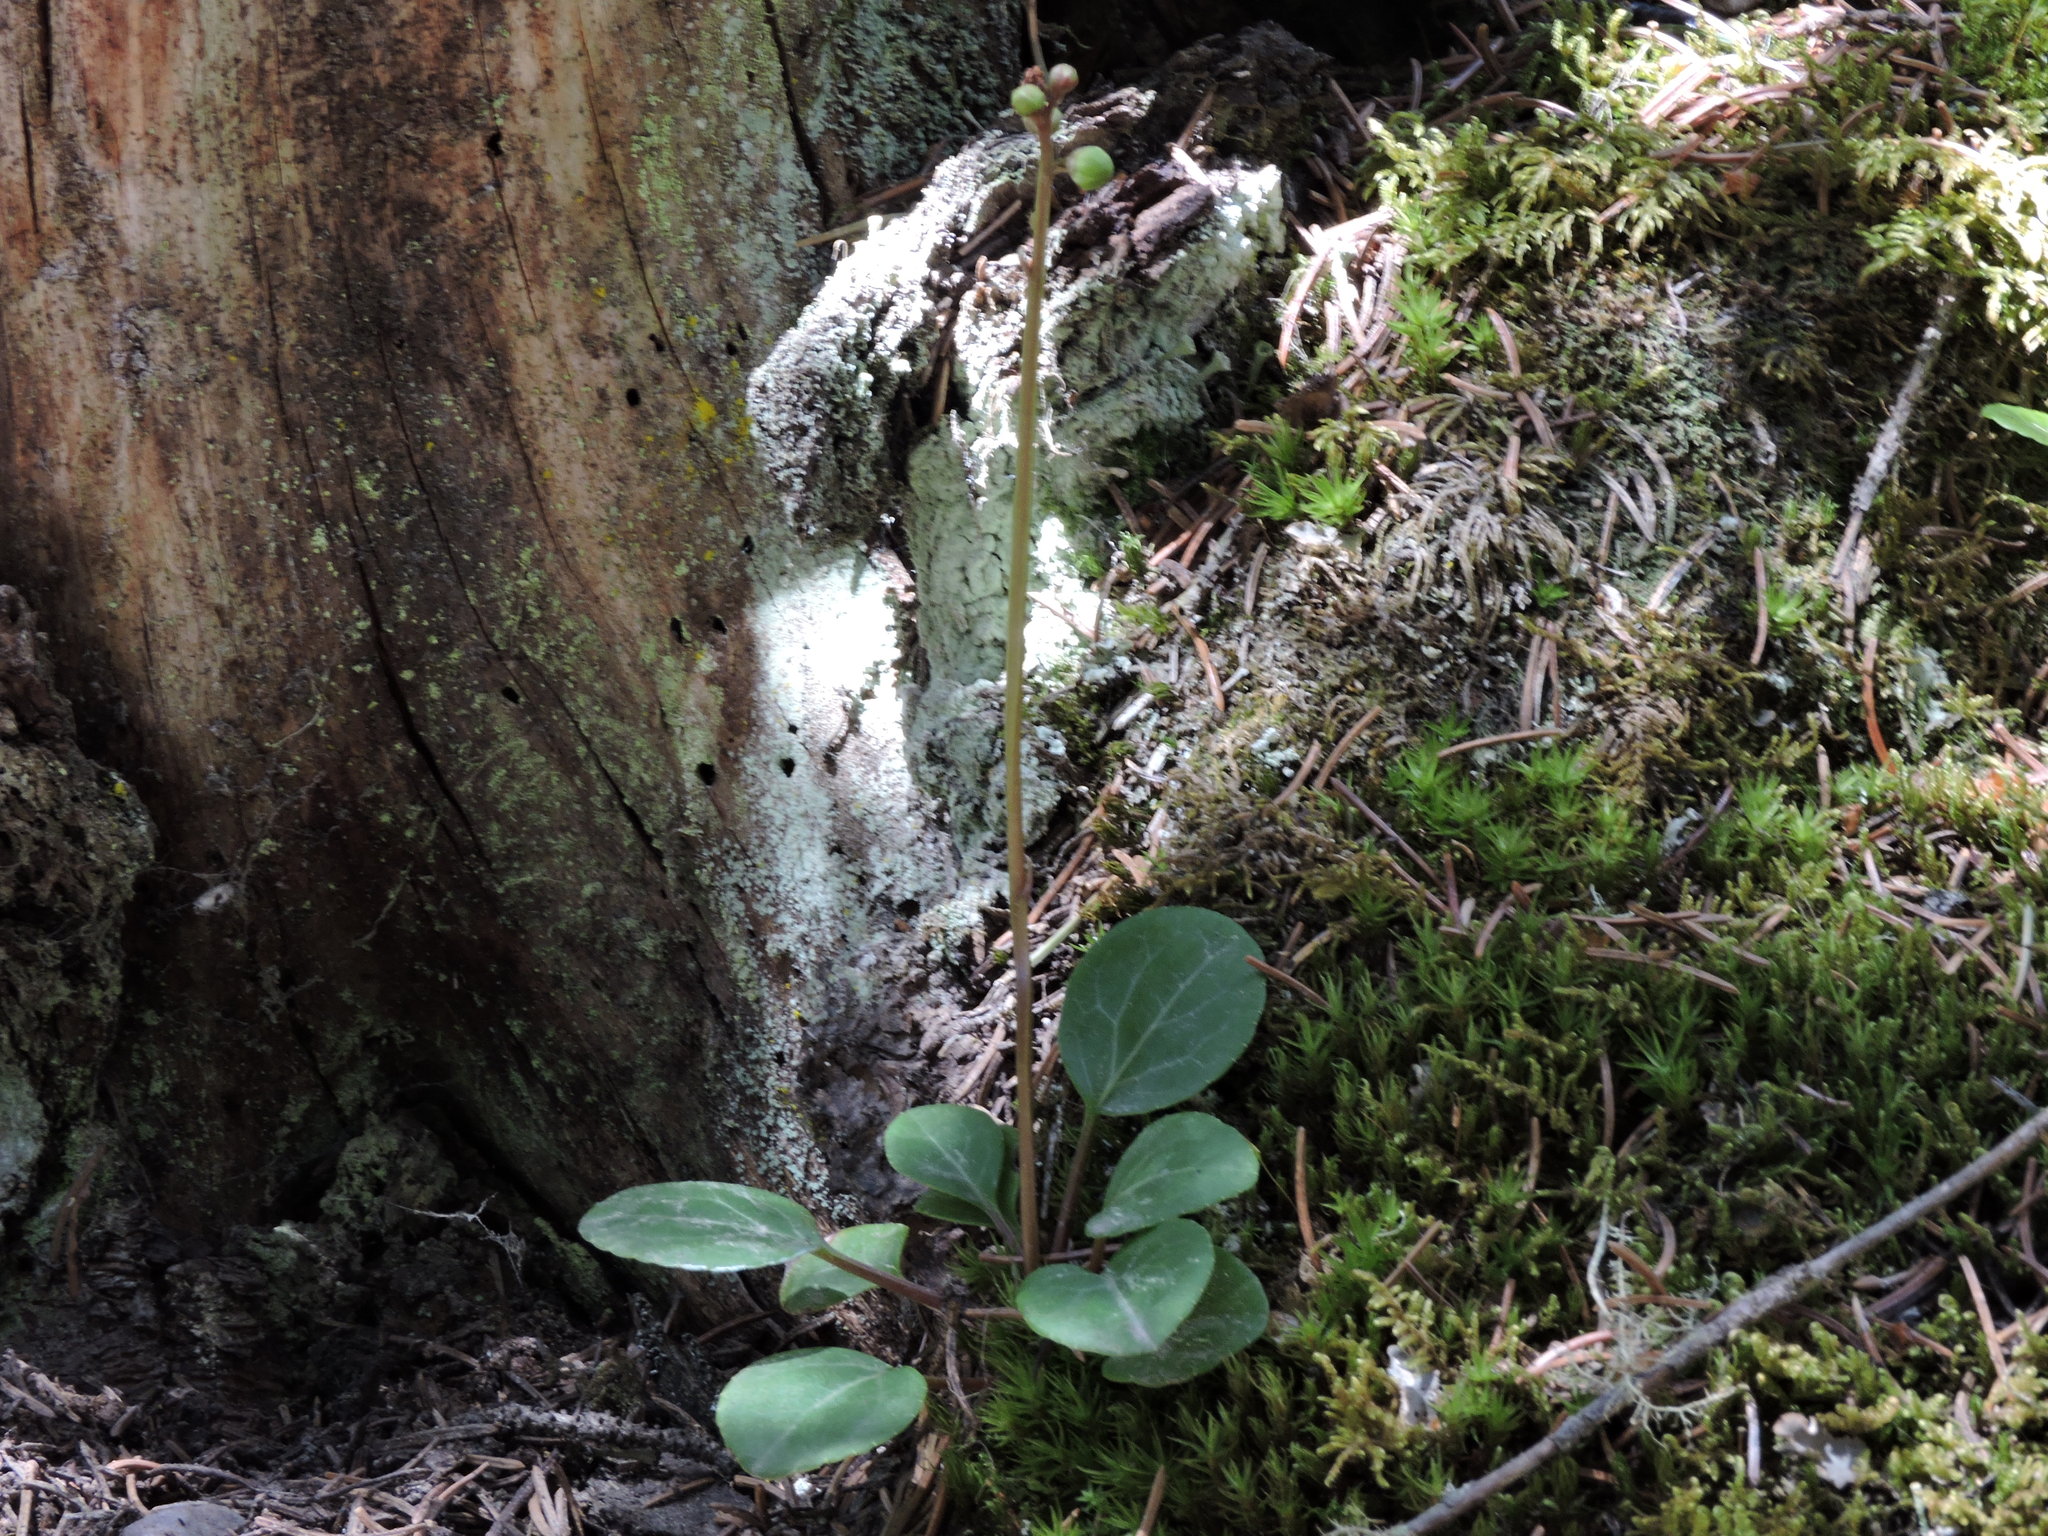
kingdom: Plantae
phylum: Tracheophyta
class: Magnoliopsida
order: Ericales
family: Ericaceae
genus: Pyrola
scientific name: Pyrola chlorantha
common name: Green wintergreen
